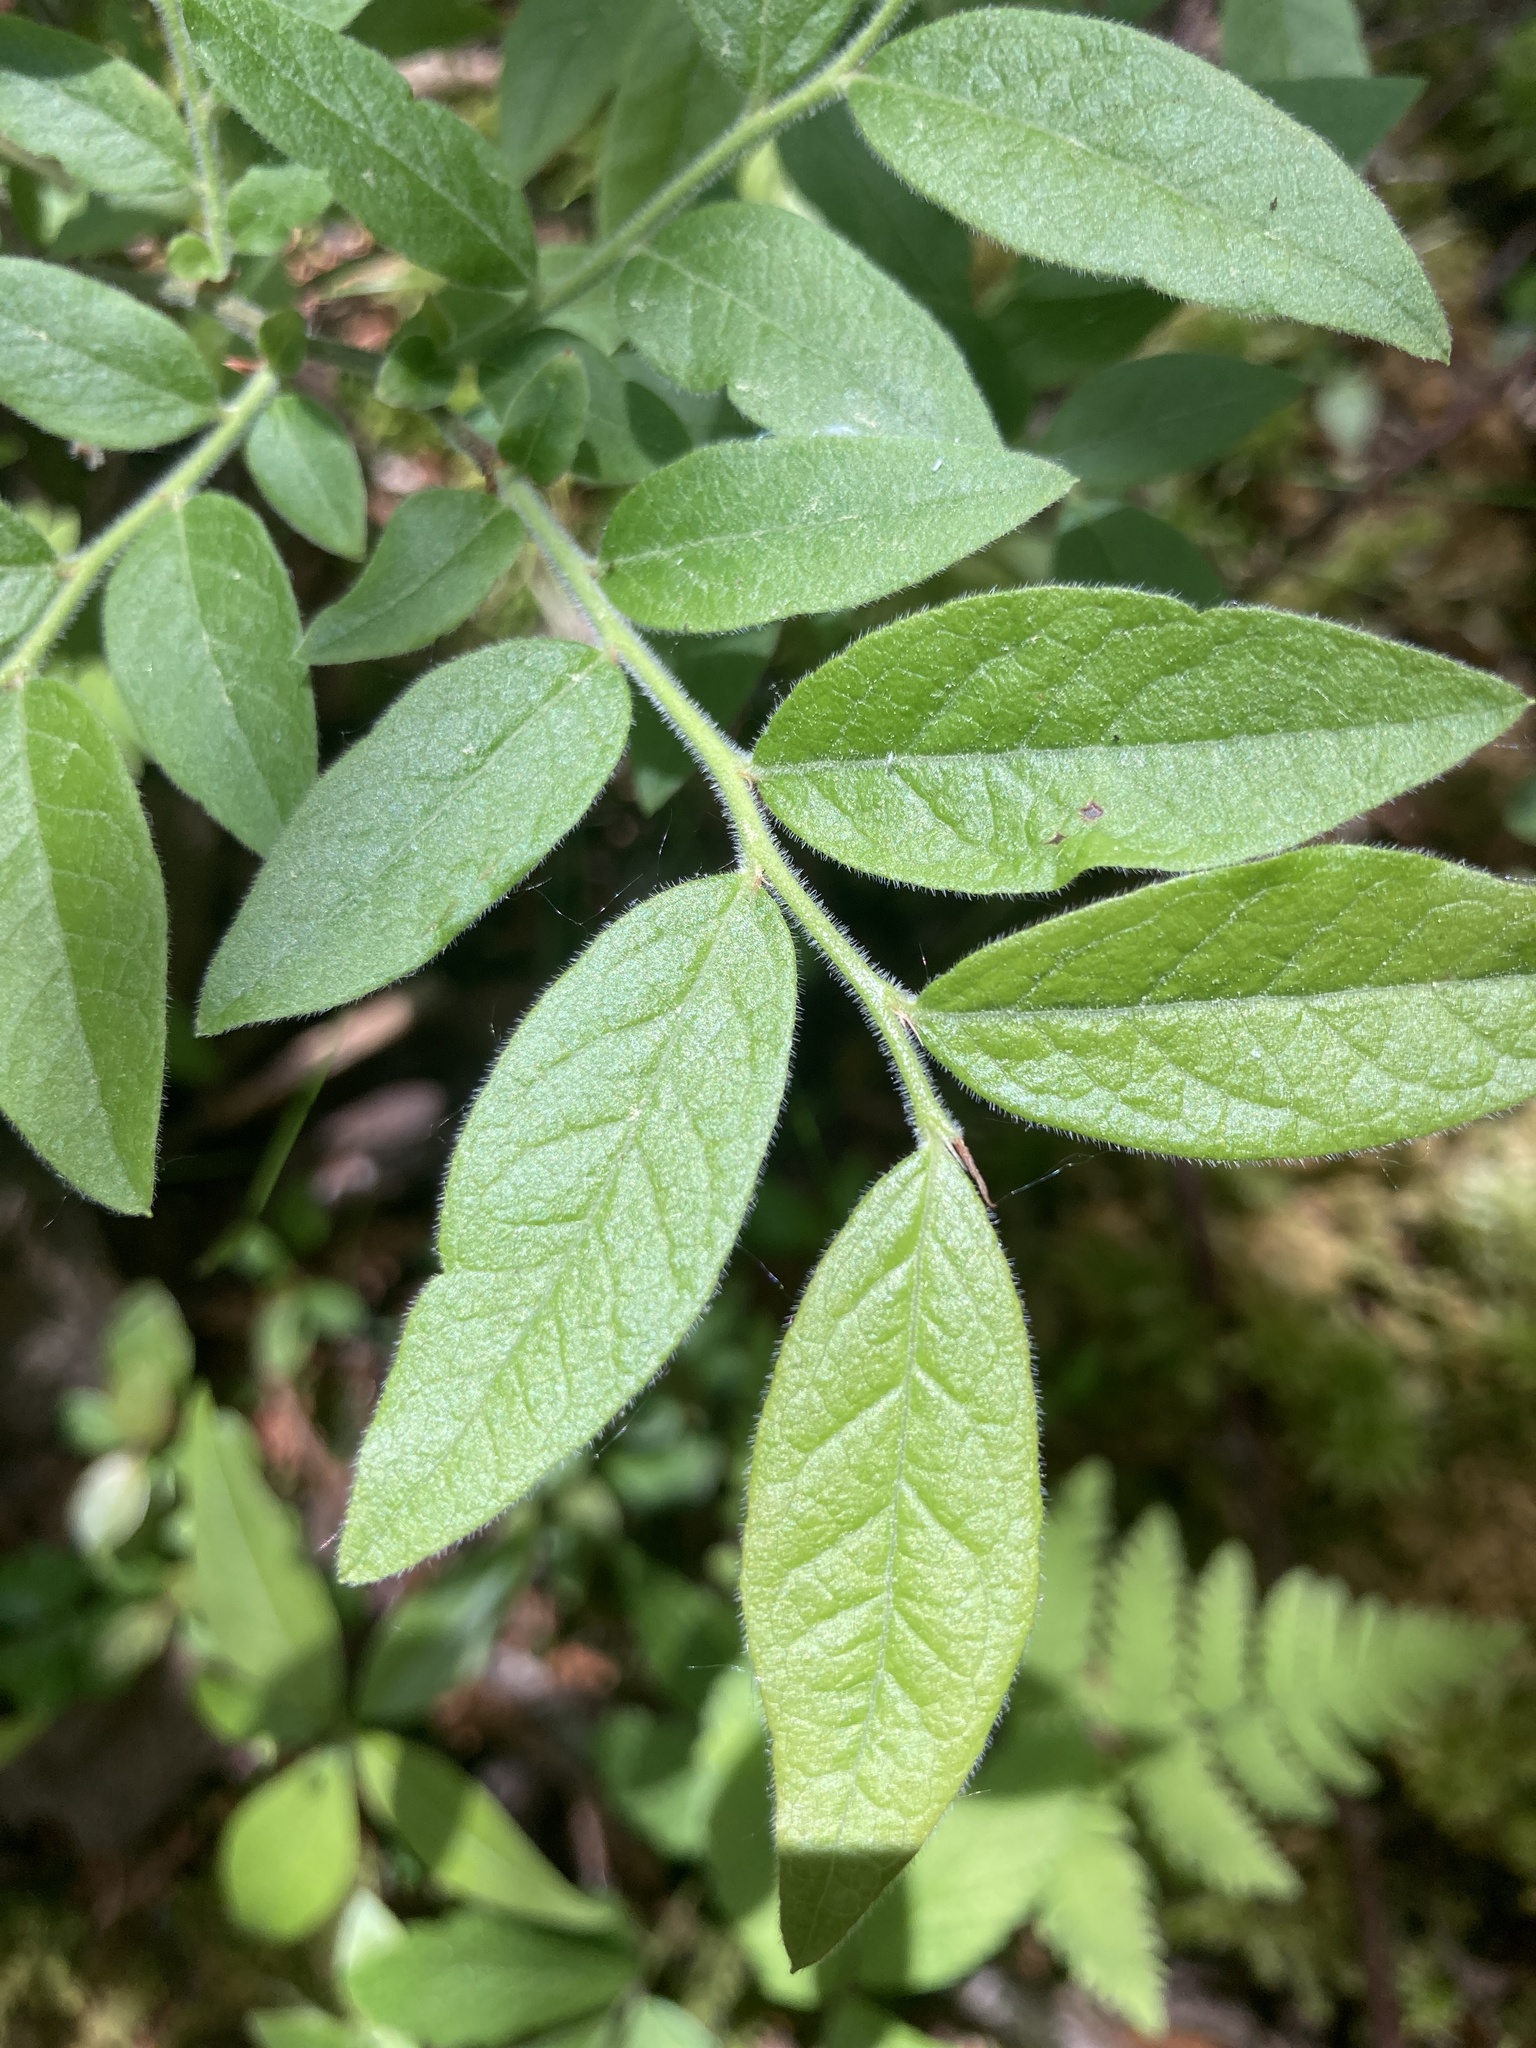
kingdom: Plantae
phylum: Tracheophyta
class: Magnoliopsida
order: Ericales
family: Ericaceae
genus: Vaccinium
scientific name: Vaccinium myrtilloides
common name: Canada blueberry
